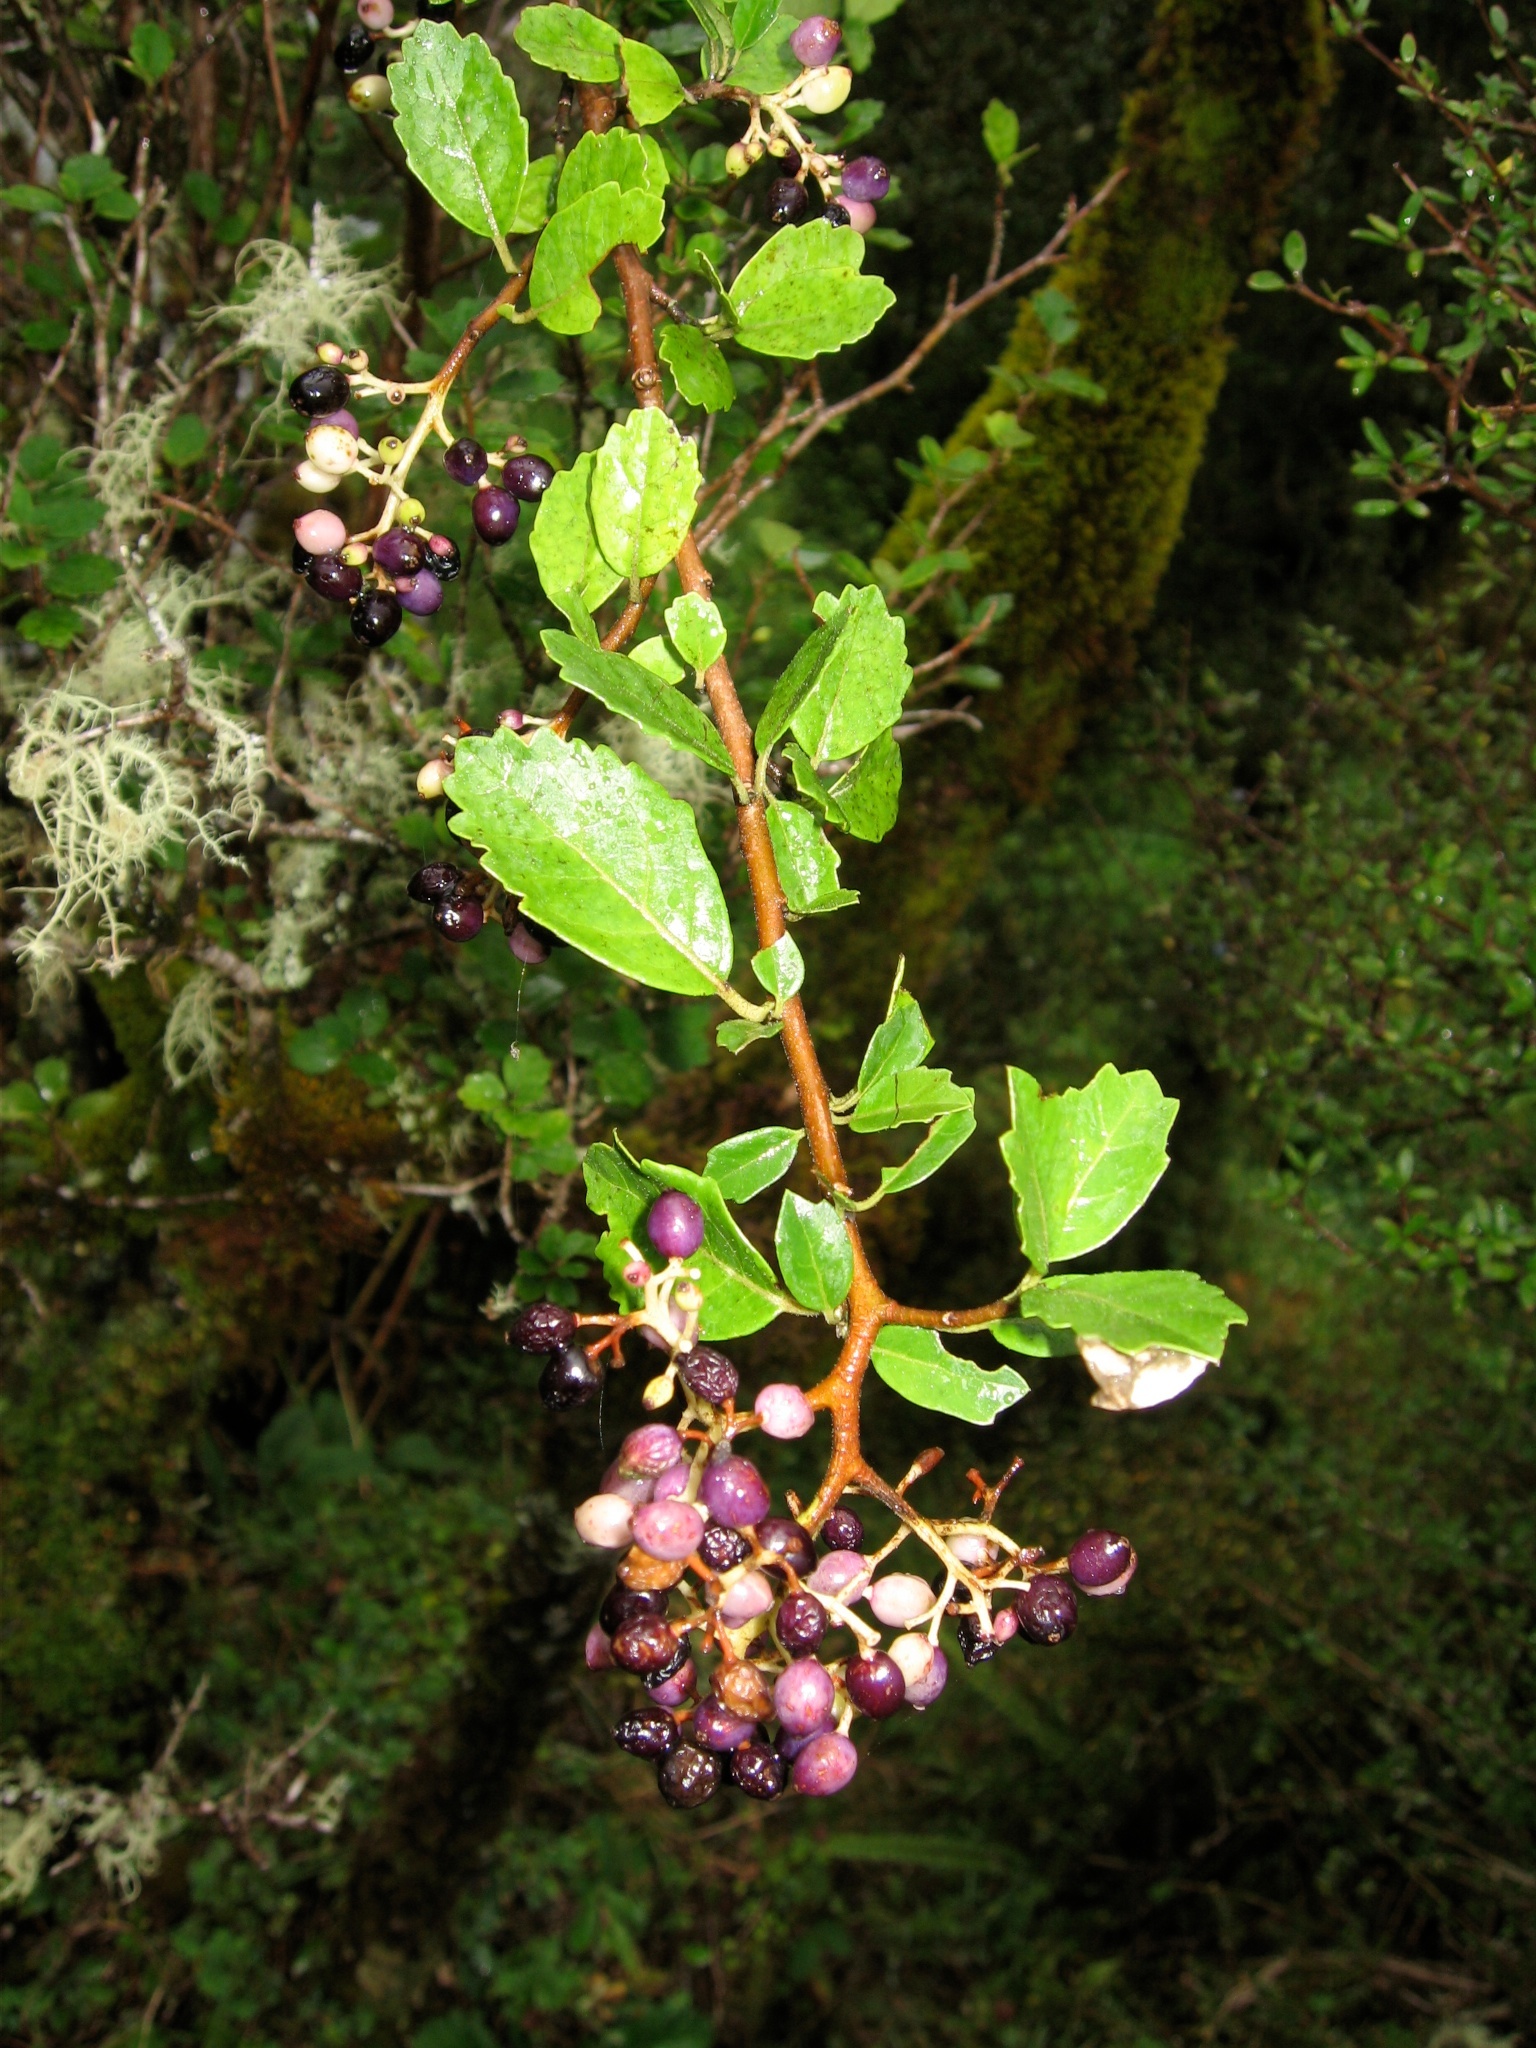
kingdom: Plantae
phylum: Tracheophyta
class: Magnoliopsida
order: Apiales
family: Pennantiaceae
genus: Pennantia
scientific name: Pennantia corymbosa
